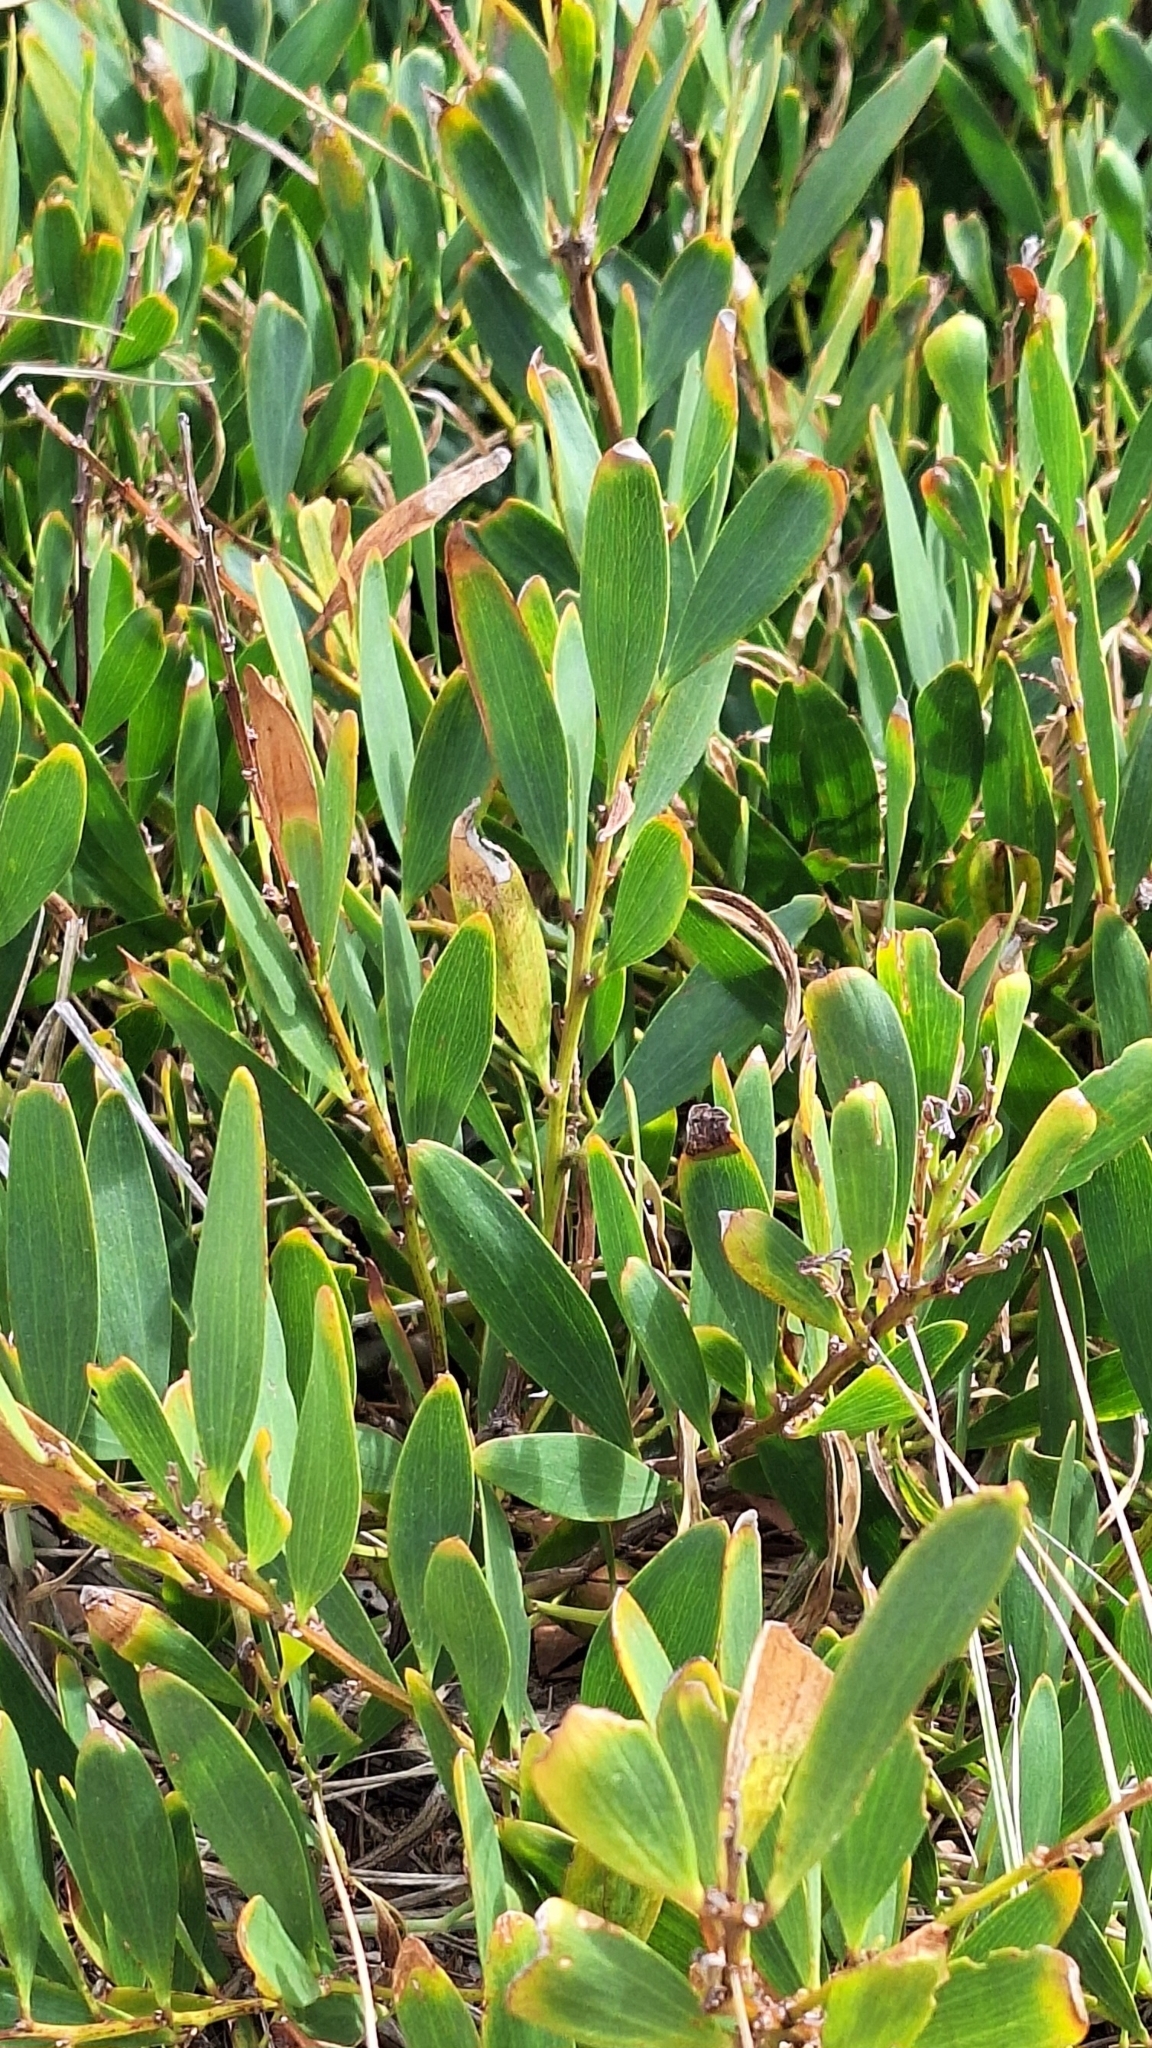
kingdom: Plantae
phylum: Tracheophyta
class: Magnoliopsida
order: Fabales
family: Fabaceae
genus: Acacia
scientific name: Acacia longifolia
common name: Sydney golden wattle
